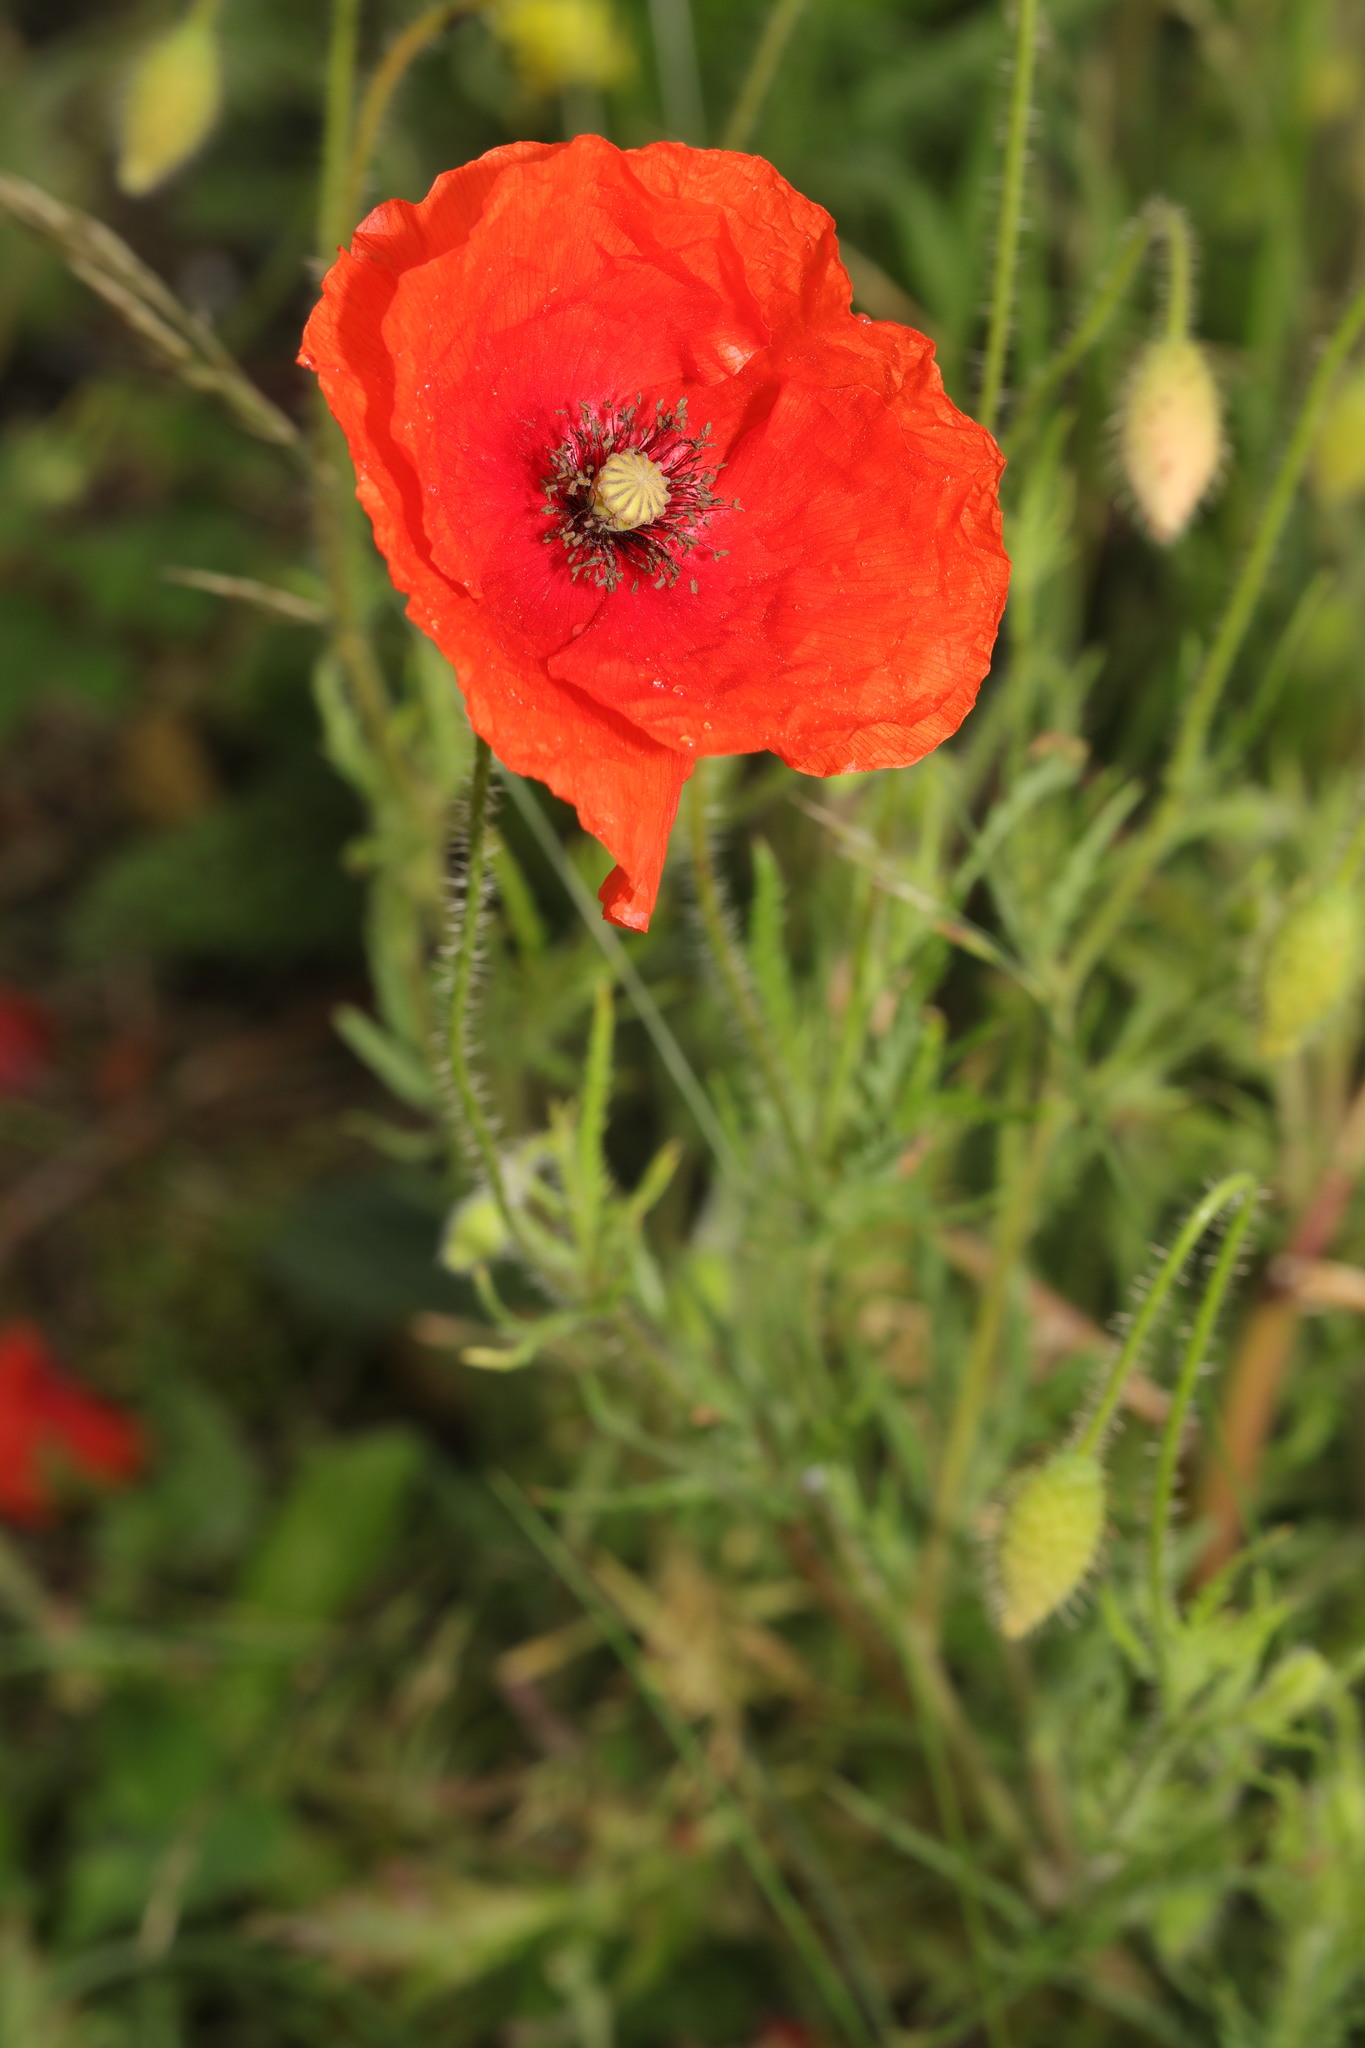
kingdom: Plantae
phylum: Tracheophyta
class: Magnoliopsida
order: Ranunculales
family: Papaveraceae
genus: Papaver
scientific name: Papaver rhoeas
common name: Corn poppy
